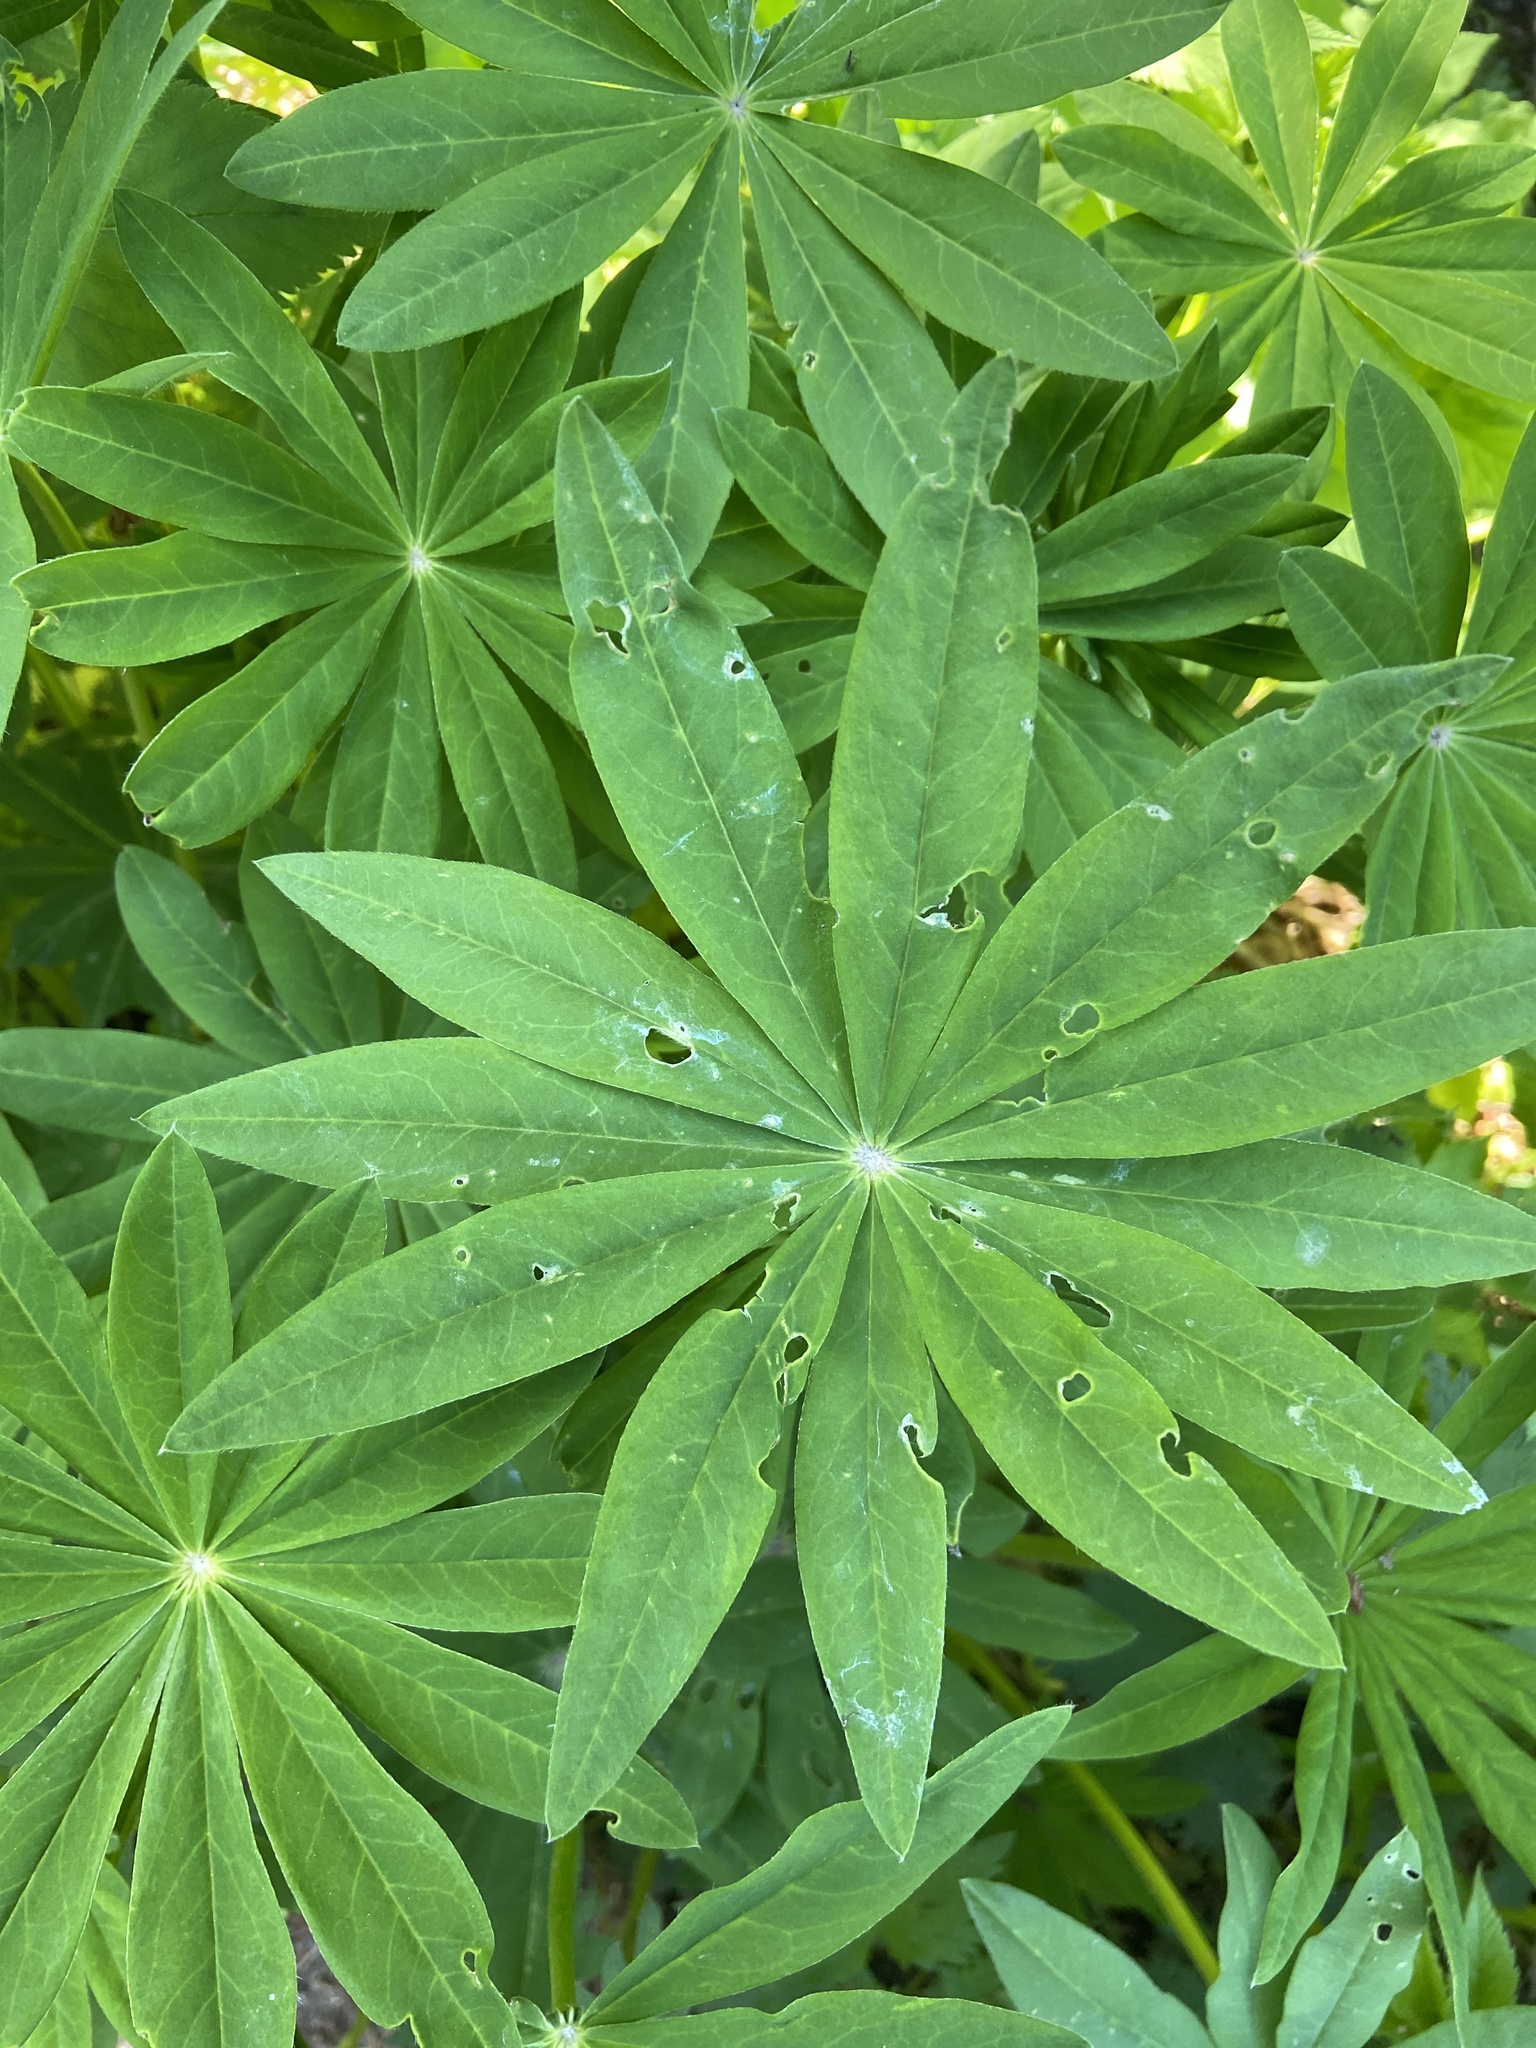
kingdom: Plantae
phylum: Tracheophyta
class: Magnoliopsida
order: Fabales
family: Fabaceae
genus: Lupinus
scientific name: Lupinus polyphyllus
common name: Garden lupin
